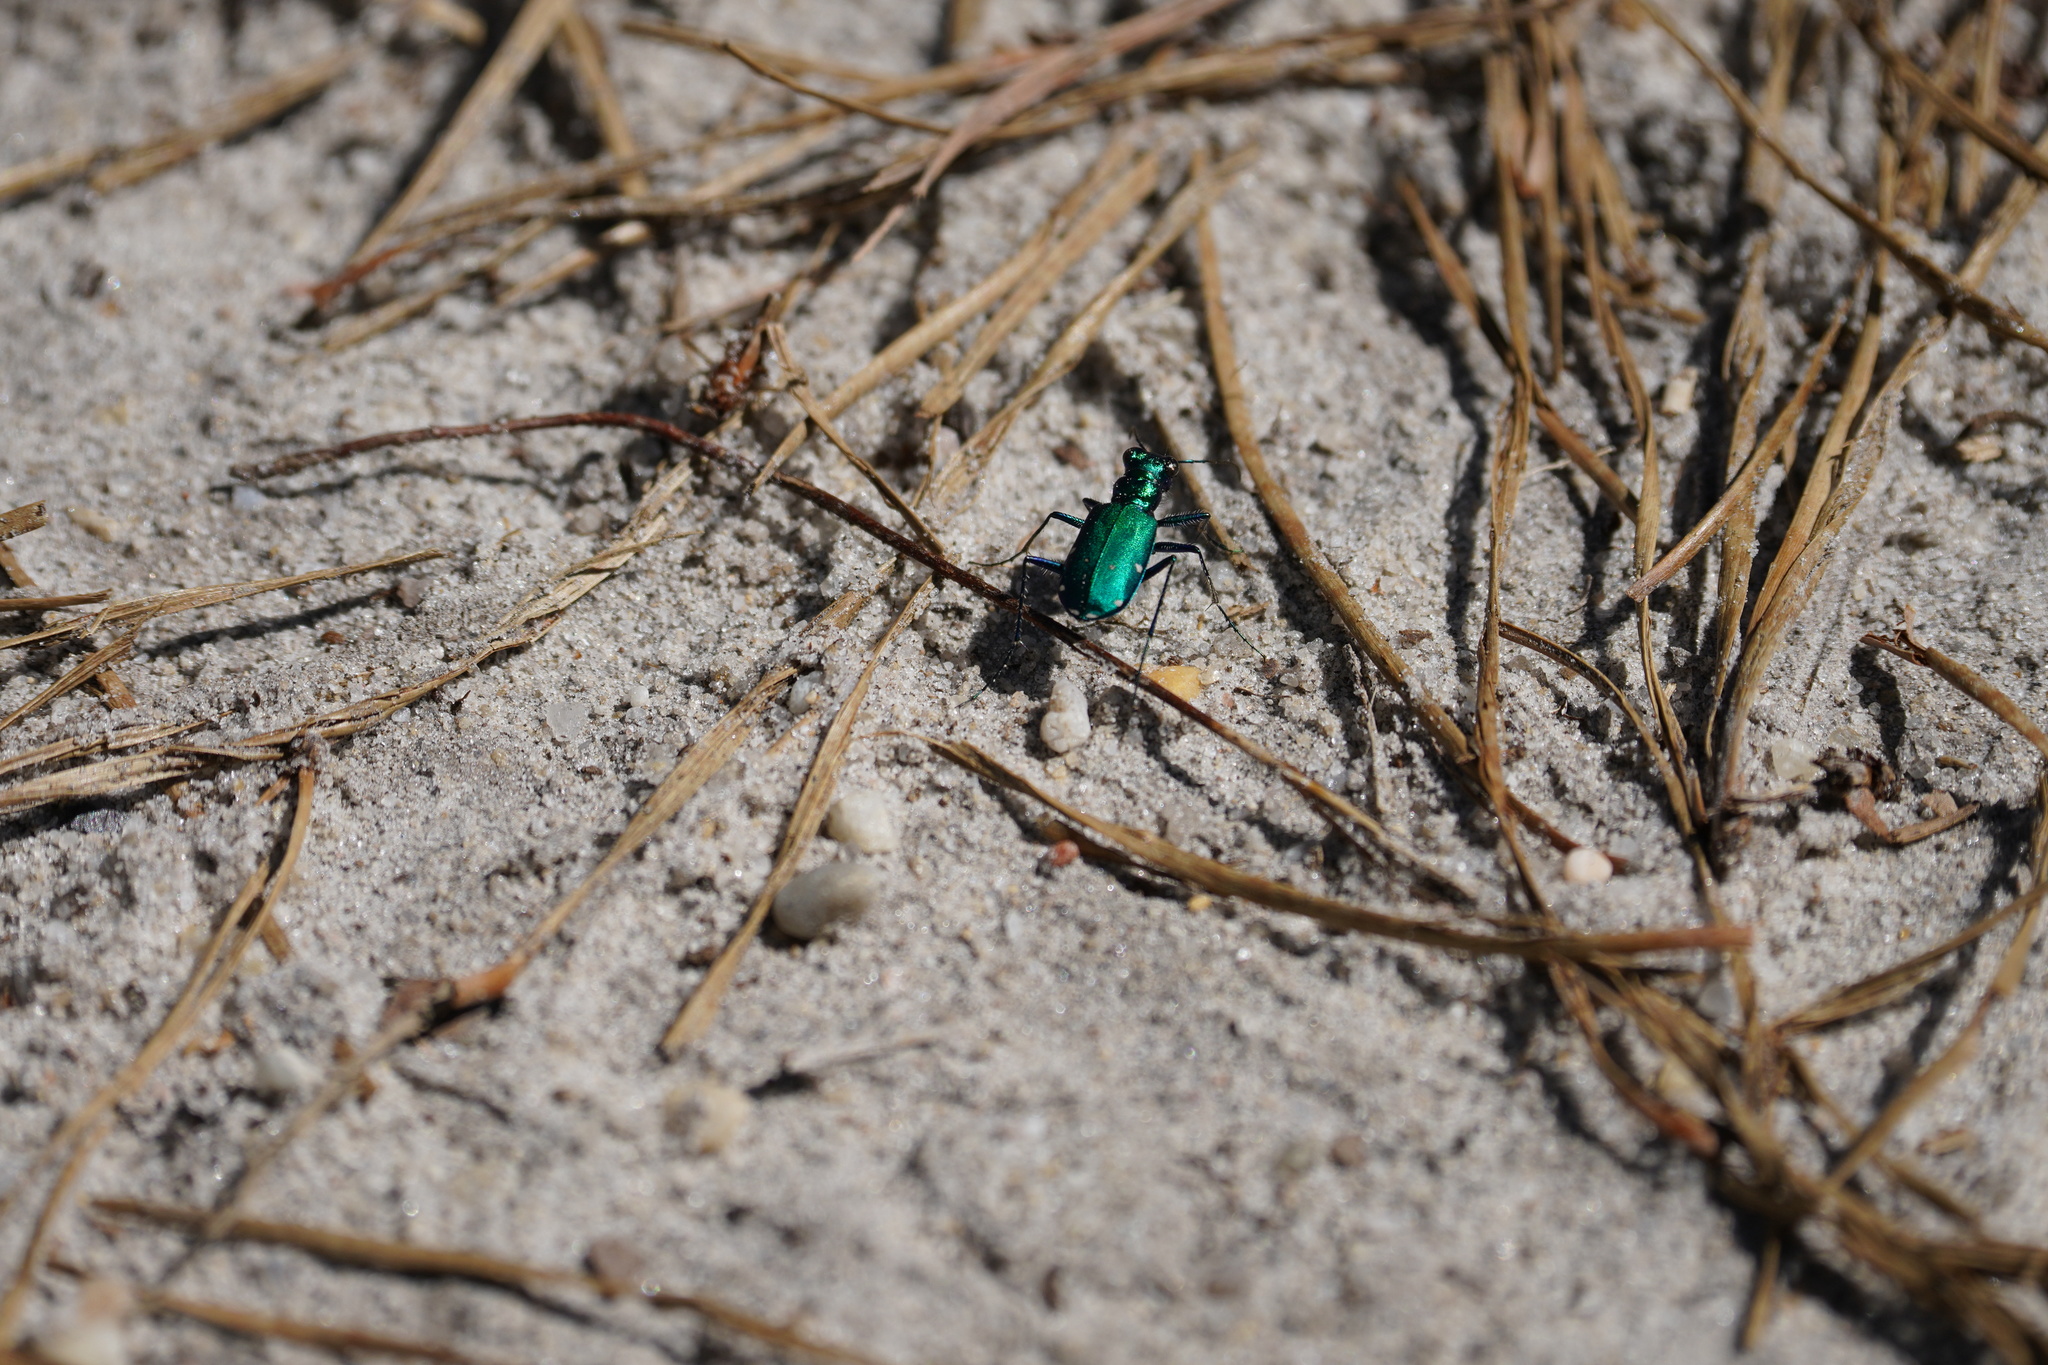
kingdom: Animalia
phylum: Arthropoda
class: Insecta
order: Coleoptera
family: Carabidae
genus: Cicindela
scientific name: Cicindela sexguttata
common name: Six-spotted tiger beetle
